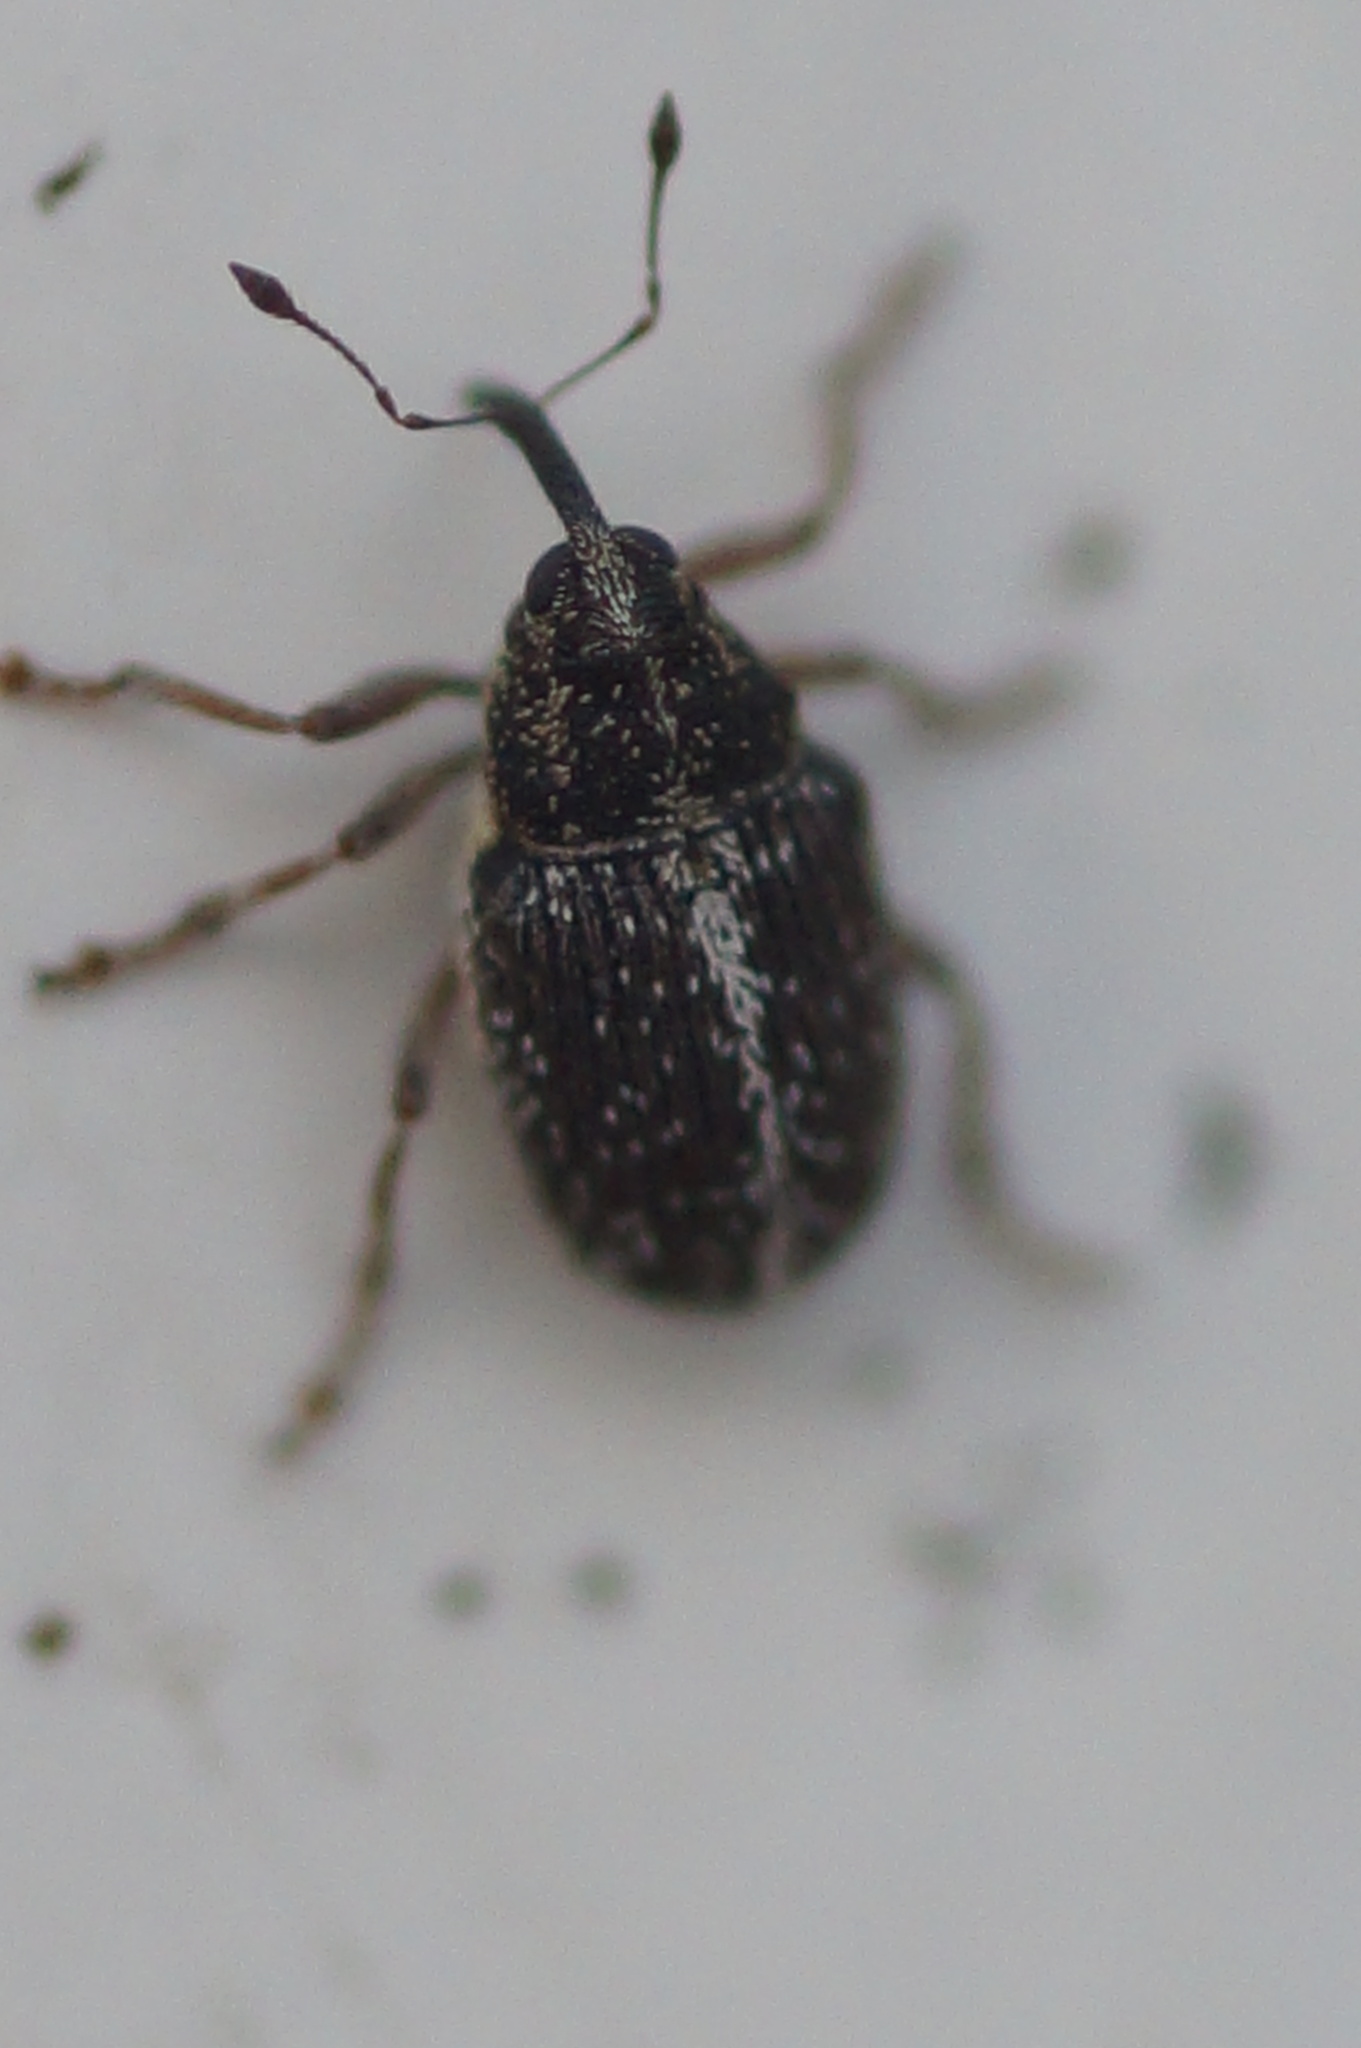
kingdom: Animalia
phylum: Arthropoda
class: Insecta
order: Coleoptera
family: Curculionidae
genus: Oprohinus
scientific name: Oprohinus suturalis
